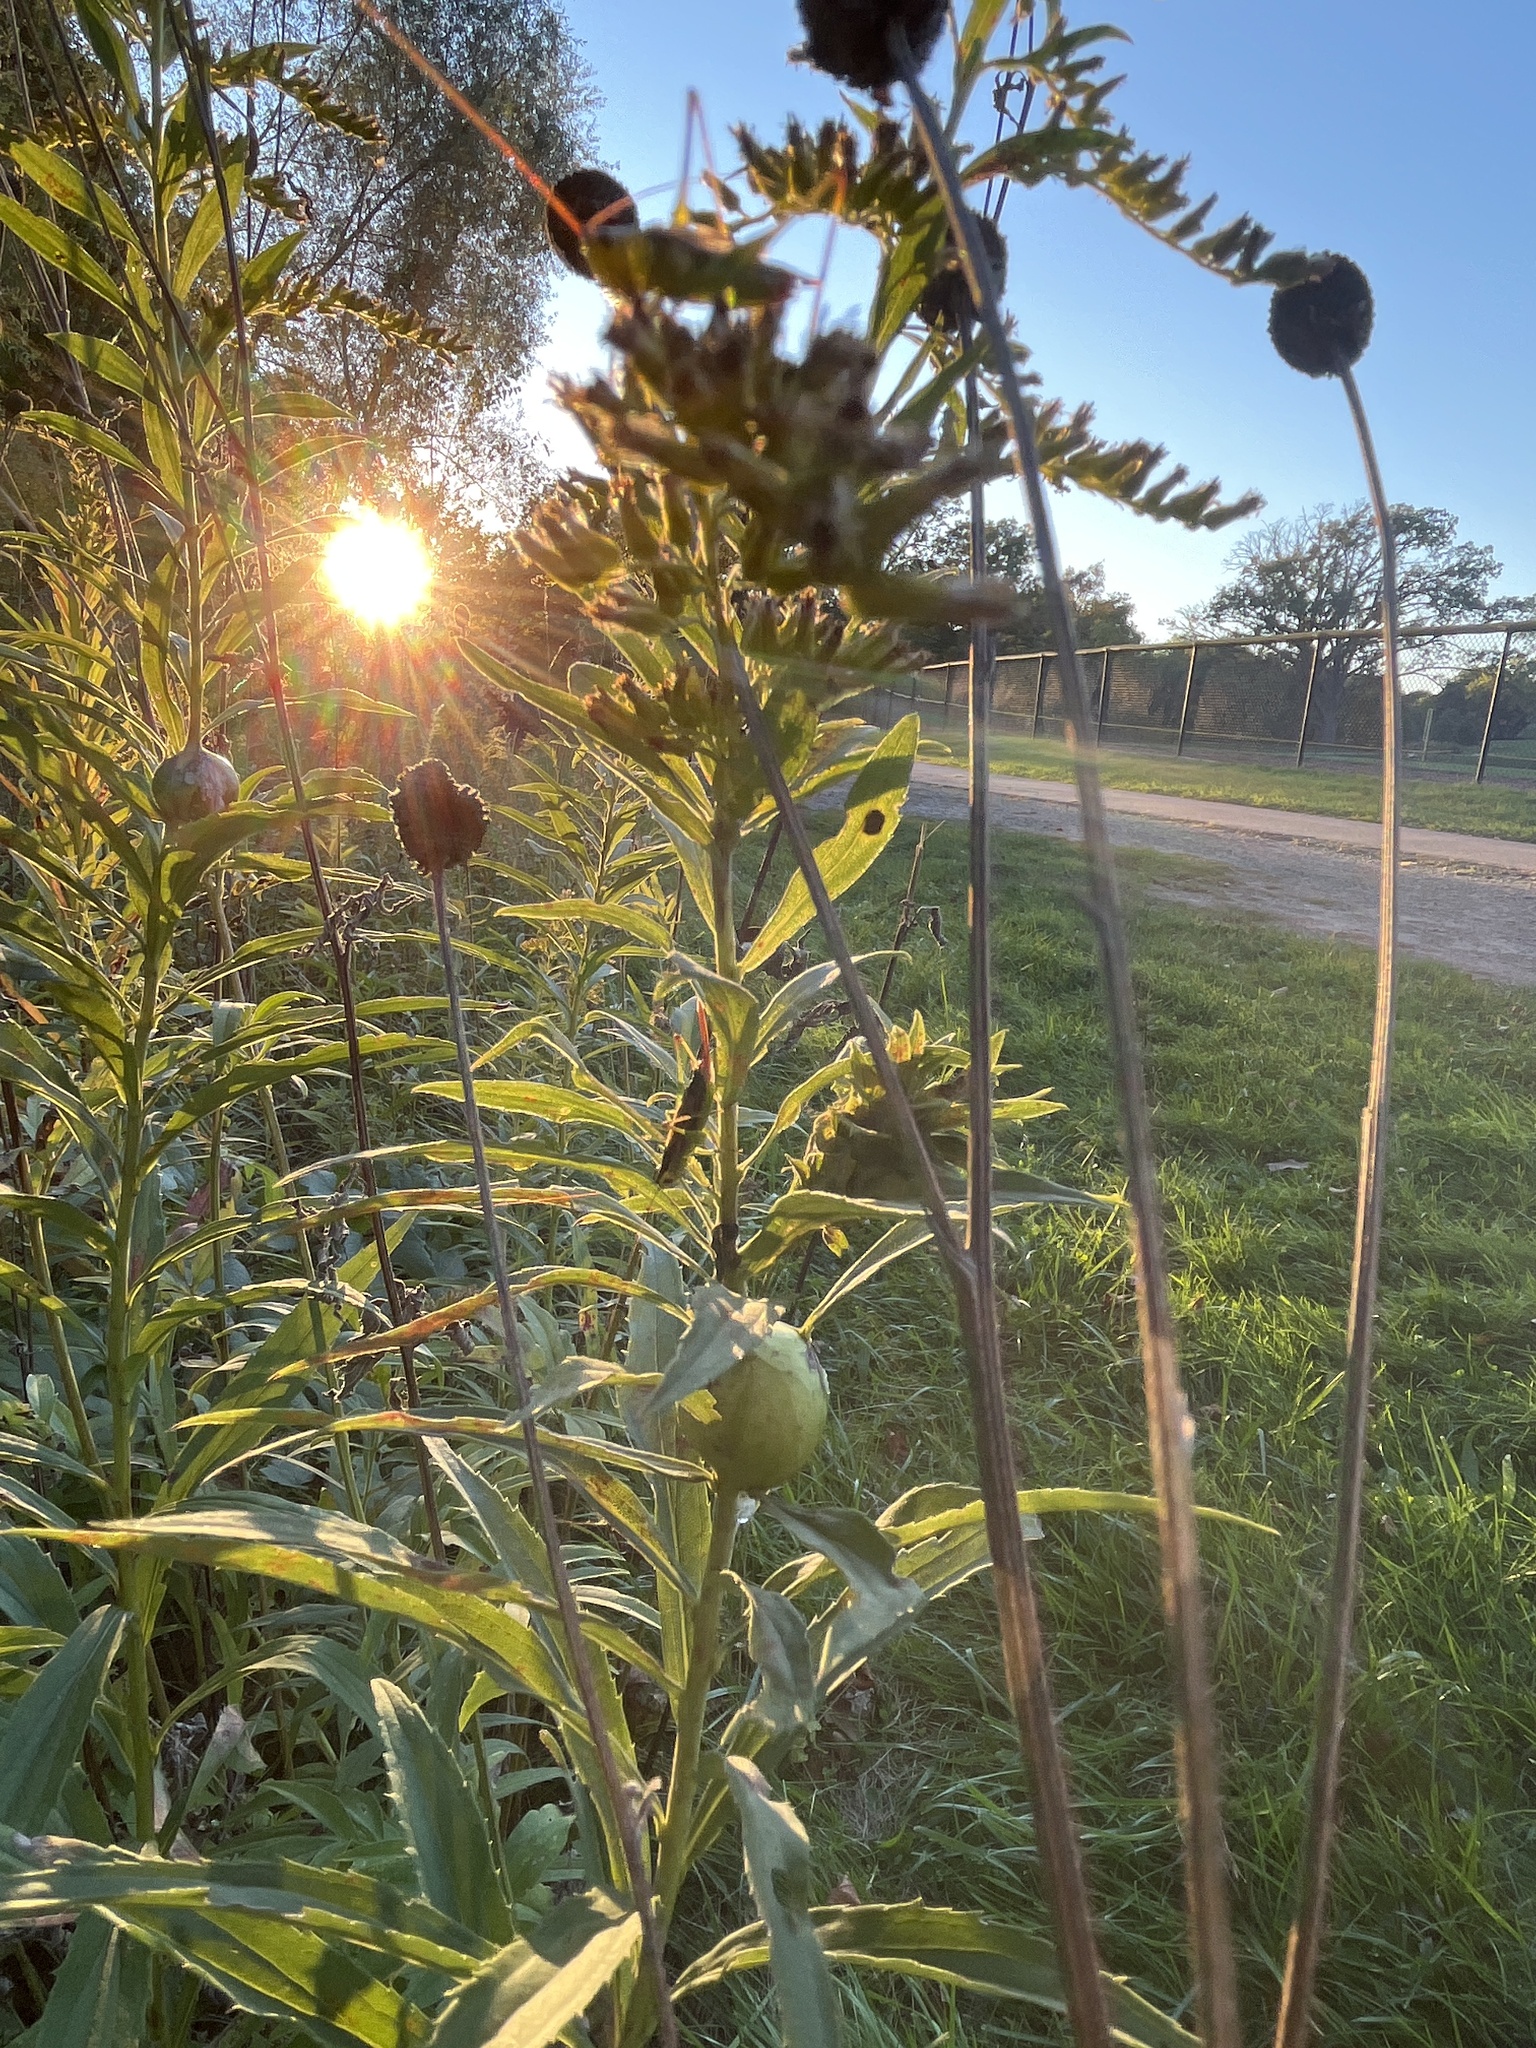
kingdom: Animalia
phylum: Arthropoda
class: Insecta
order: Orthoptera
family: Tettigoniidae
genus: Conocephalus
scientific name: Conocephalus brevipennis
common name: Short-winged meadow katydid
